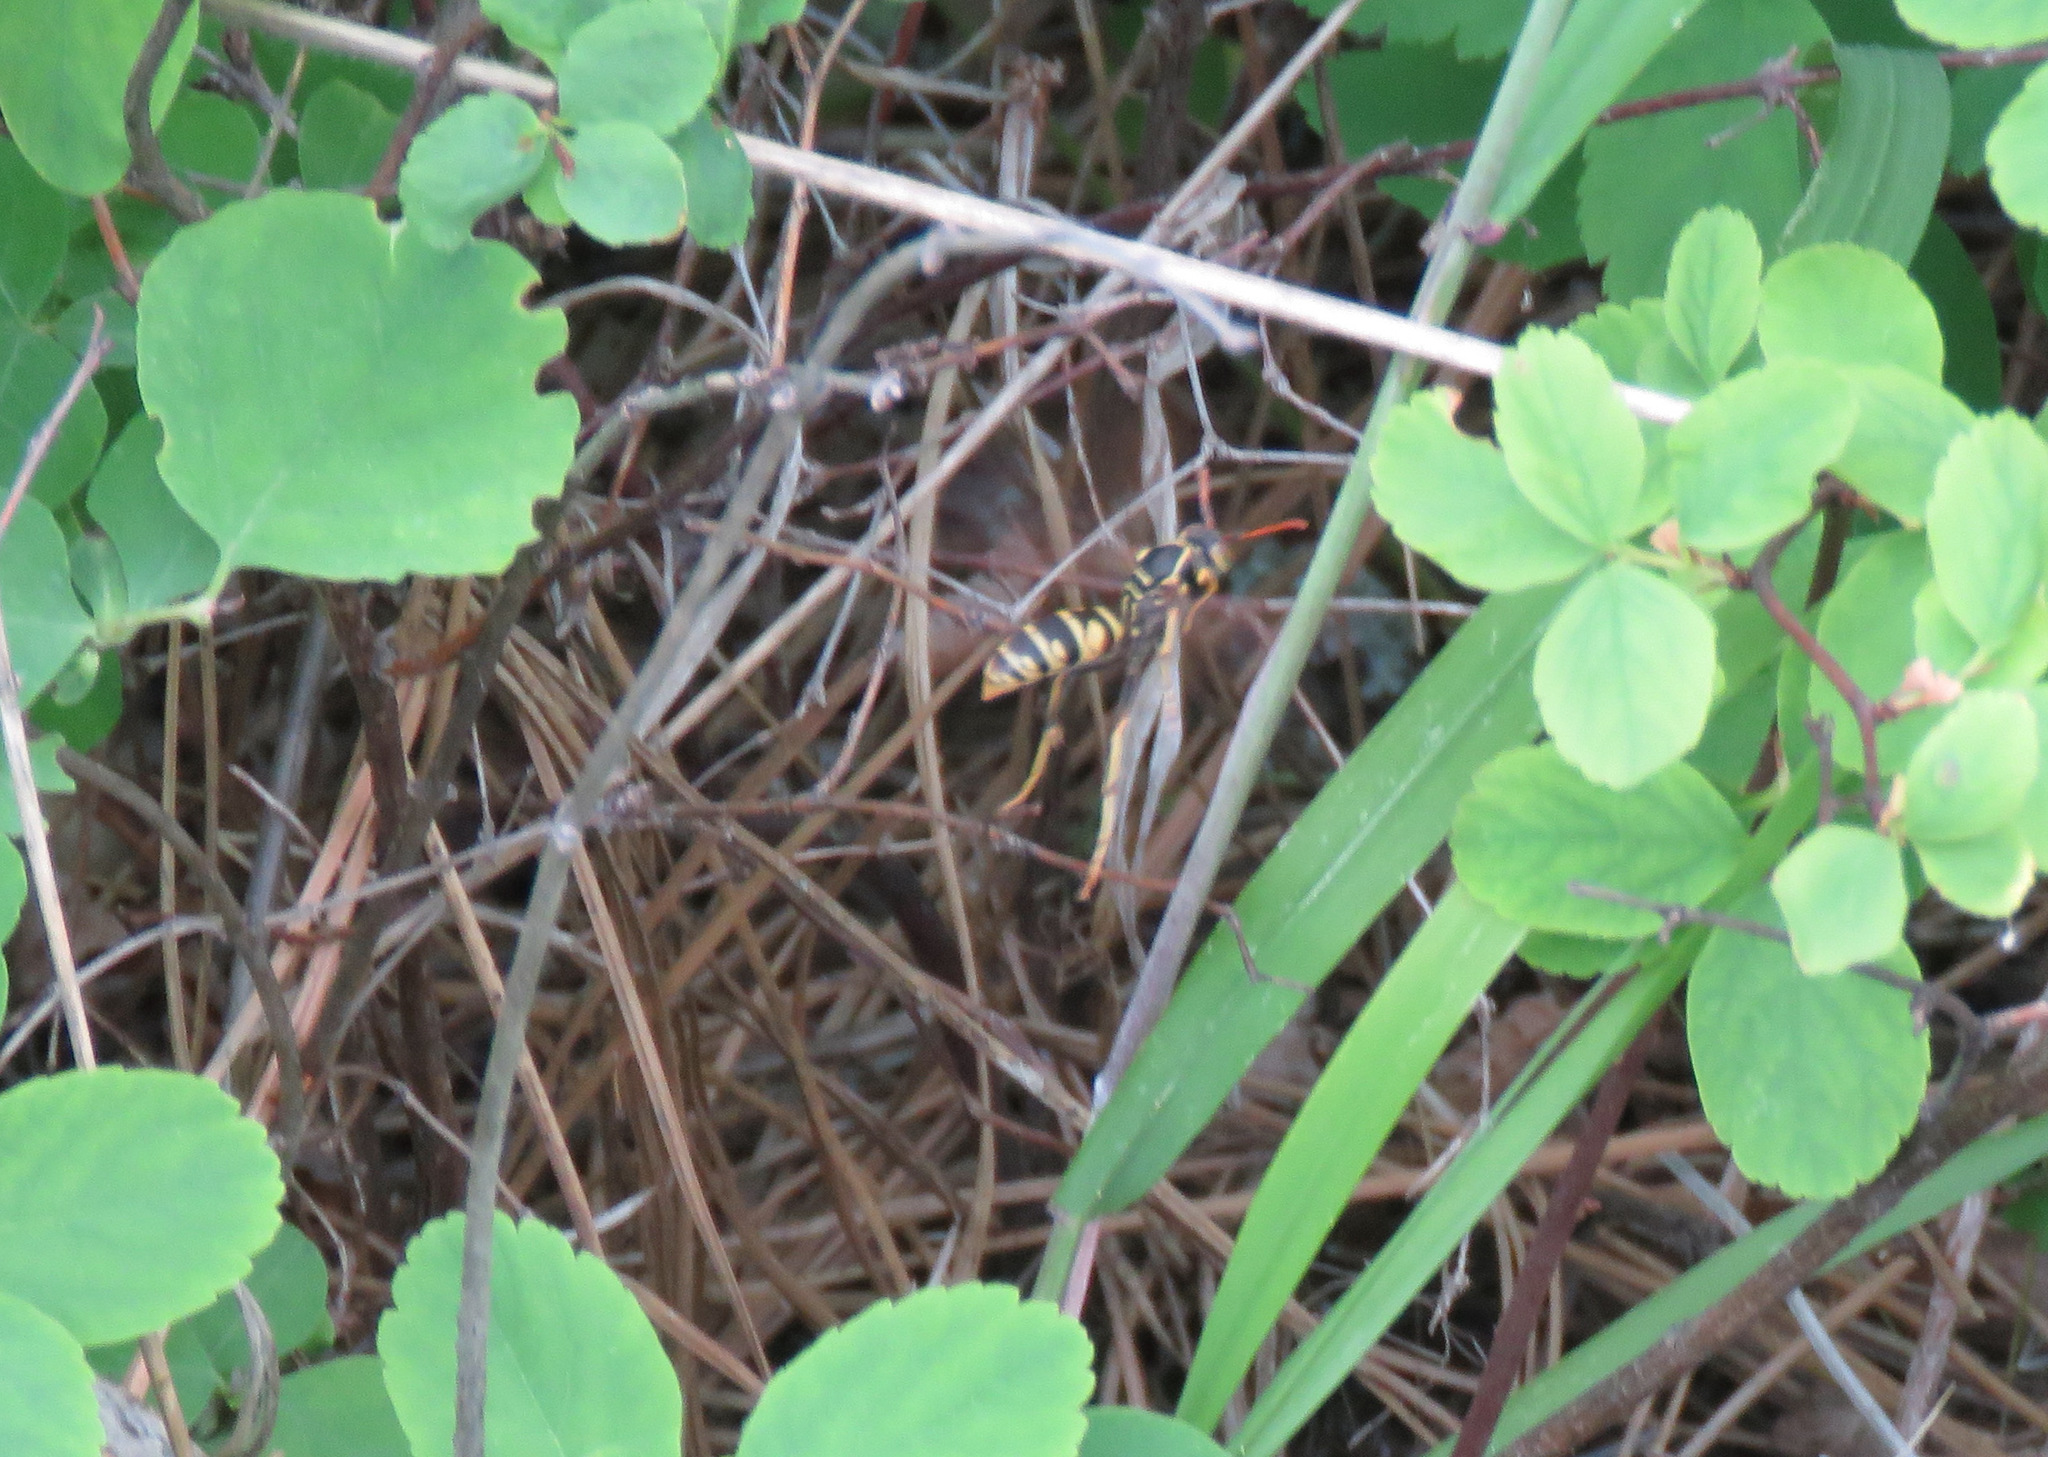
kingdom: Animalia
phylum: Arthropoda
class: Insecta
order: Hymenoptera
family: Eumenidae
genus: Polistes
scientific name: Polistes aurifer
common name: Paper wasp
